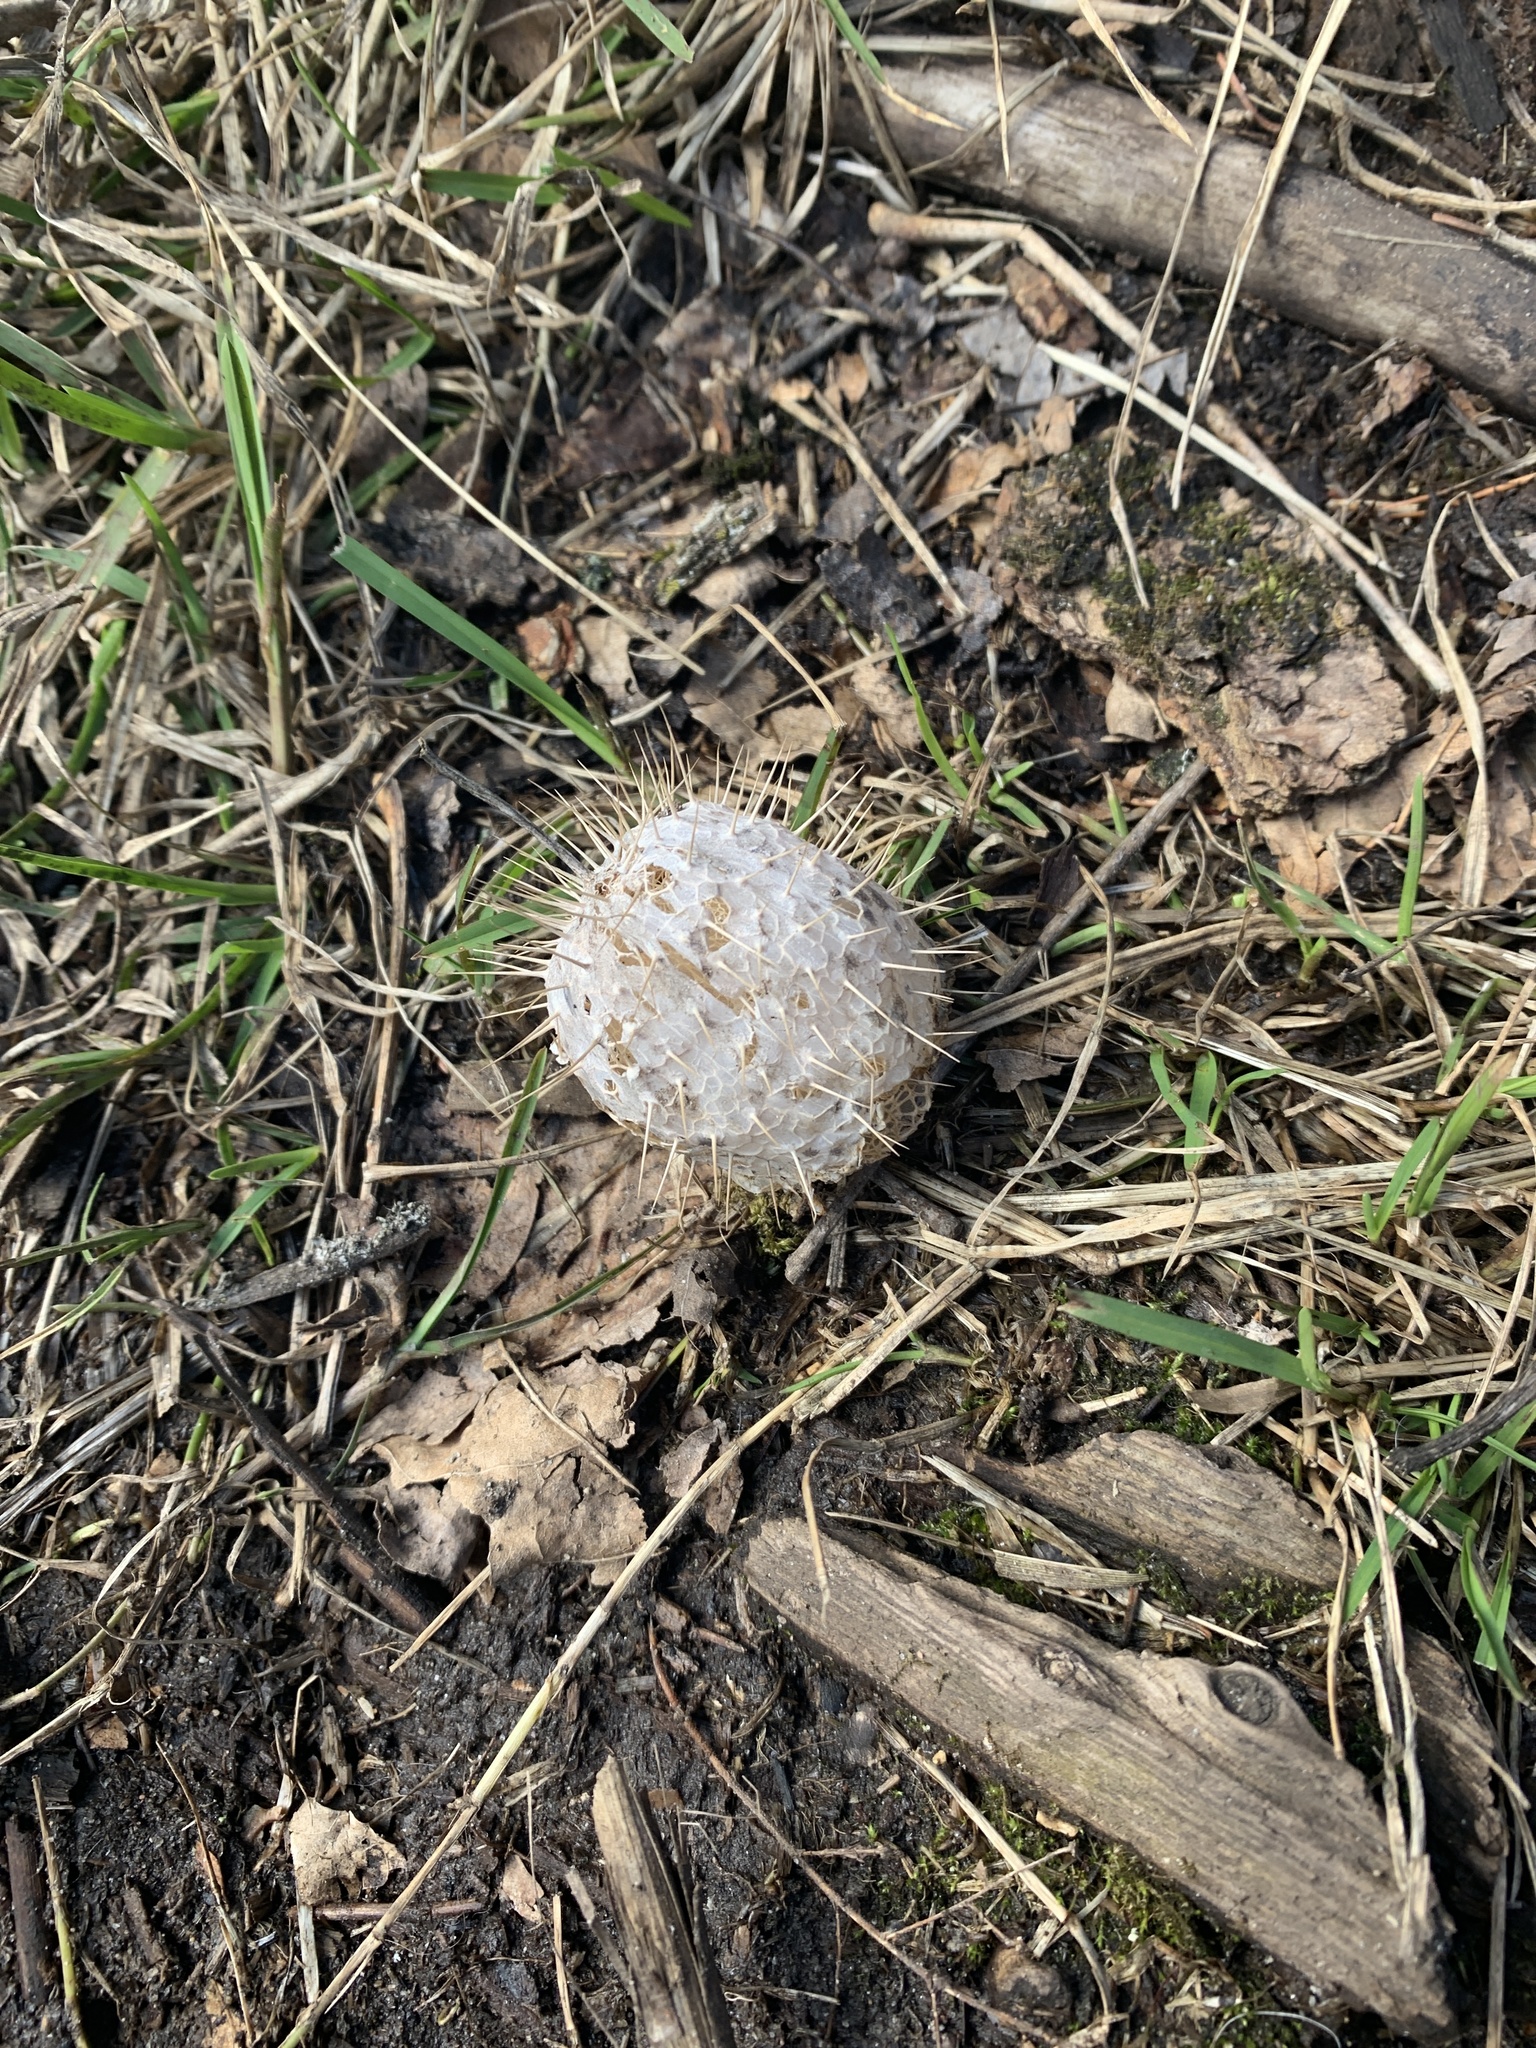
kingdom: Plantae
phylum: Tracheophyta
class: Magnoliopsida
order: Cucurbitales
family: Cucurbitaceae
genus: Echinocystis
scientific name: Echinocystis lobata
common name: Wild cucumber
